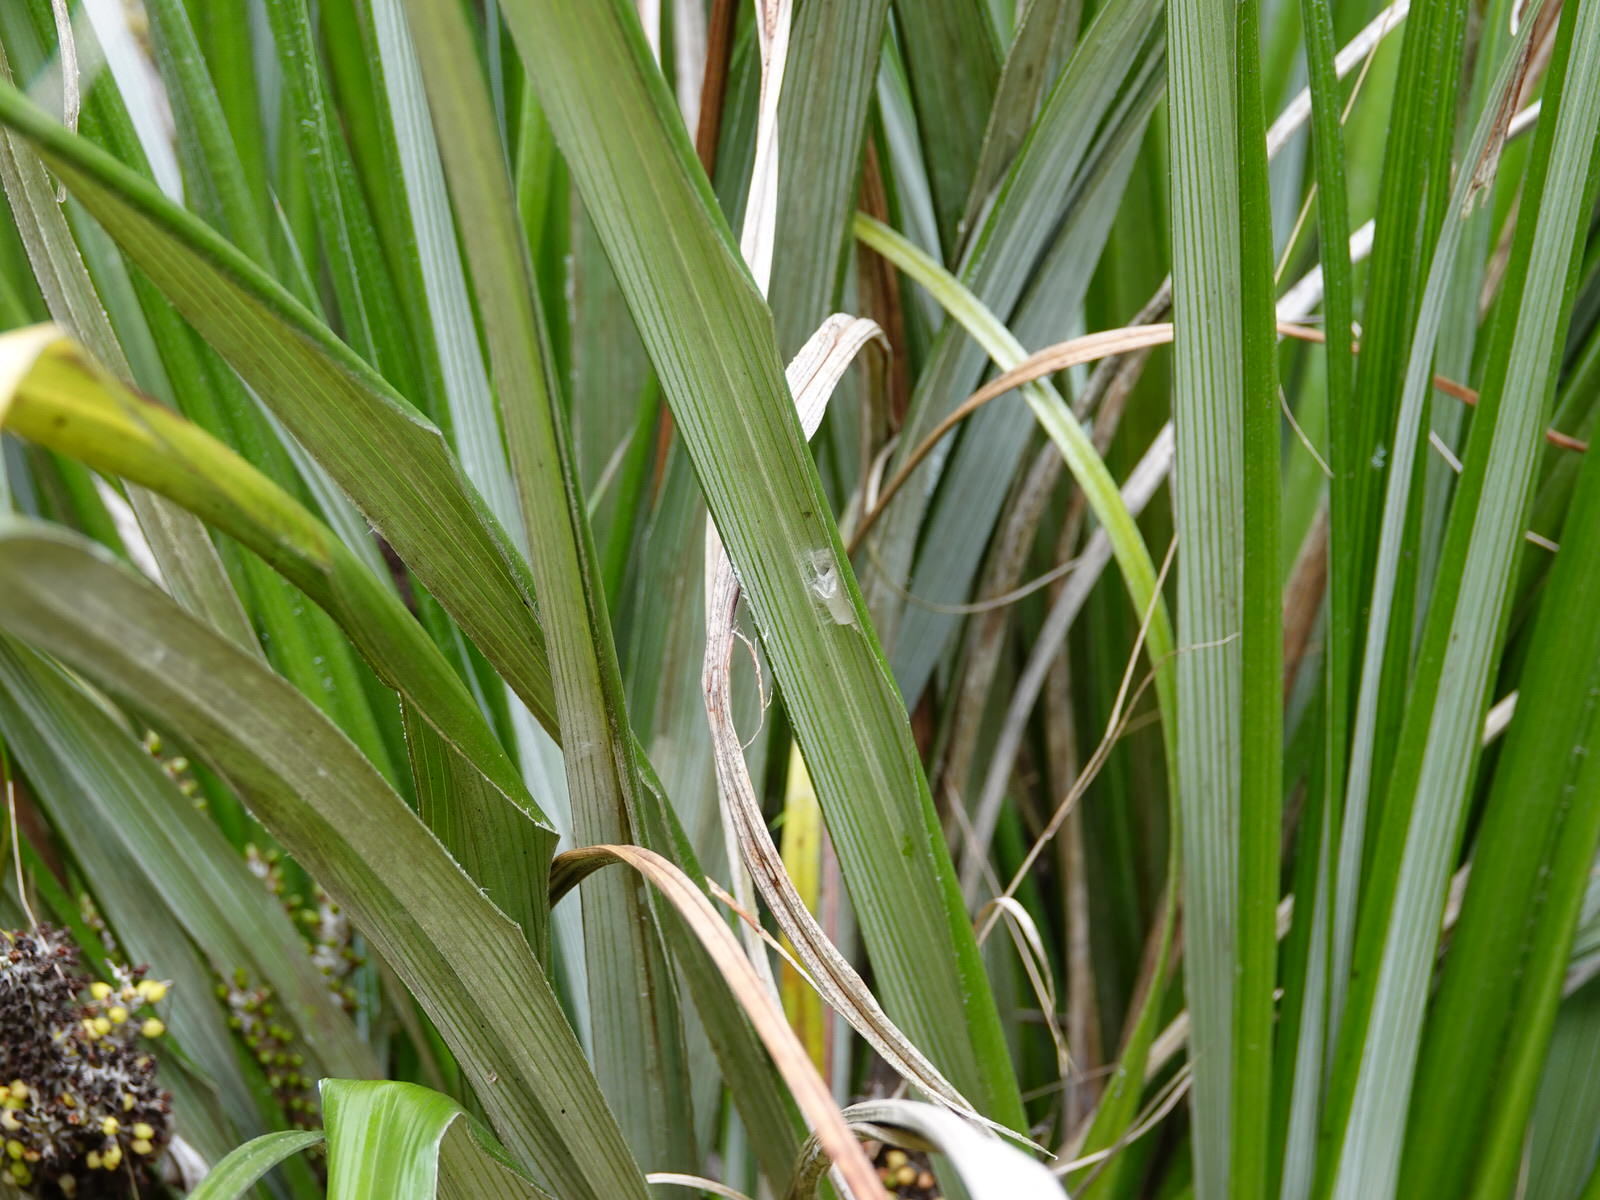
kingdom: Animalia
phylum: Arthropoda
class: Arachnida
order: Araneae
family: Salticidae
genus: Opisthoncus
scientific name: Opisthoncus polyphemus
